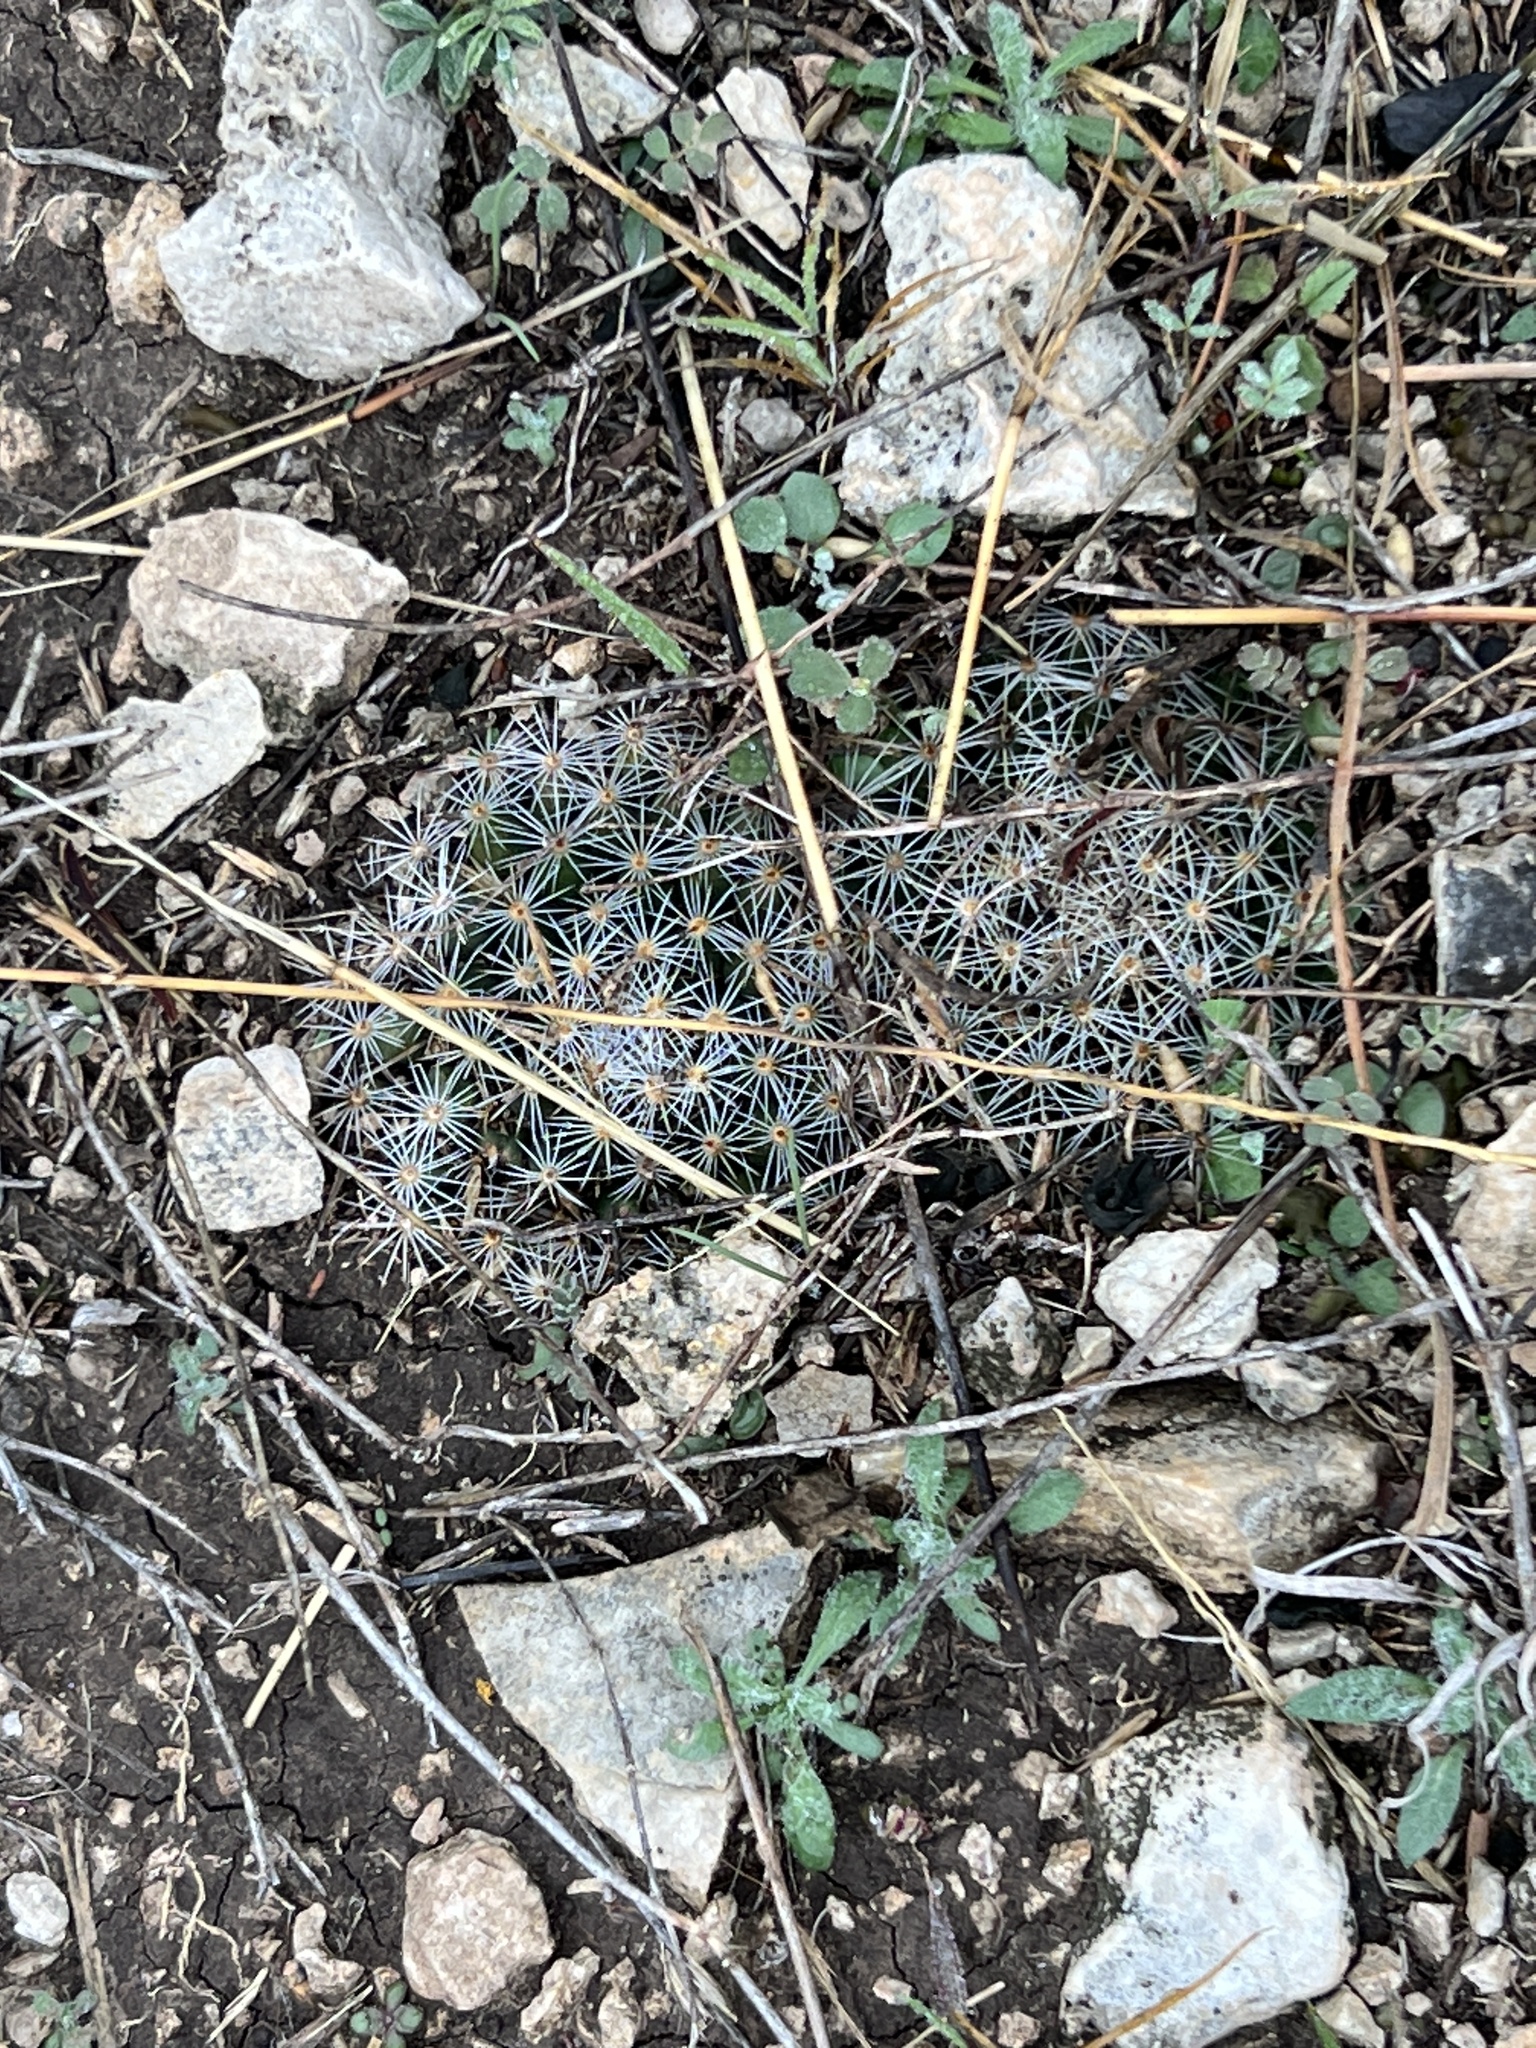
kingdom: Plantae
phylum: Tracheophyta
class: Magnoliopsida
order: Caryophyllales
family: Cactaceae
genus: Mammillaria
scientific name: Mammillaria heyderi
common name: Little nipple cactus
